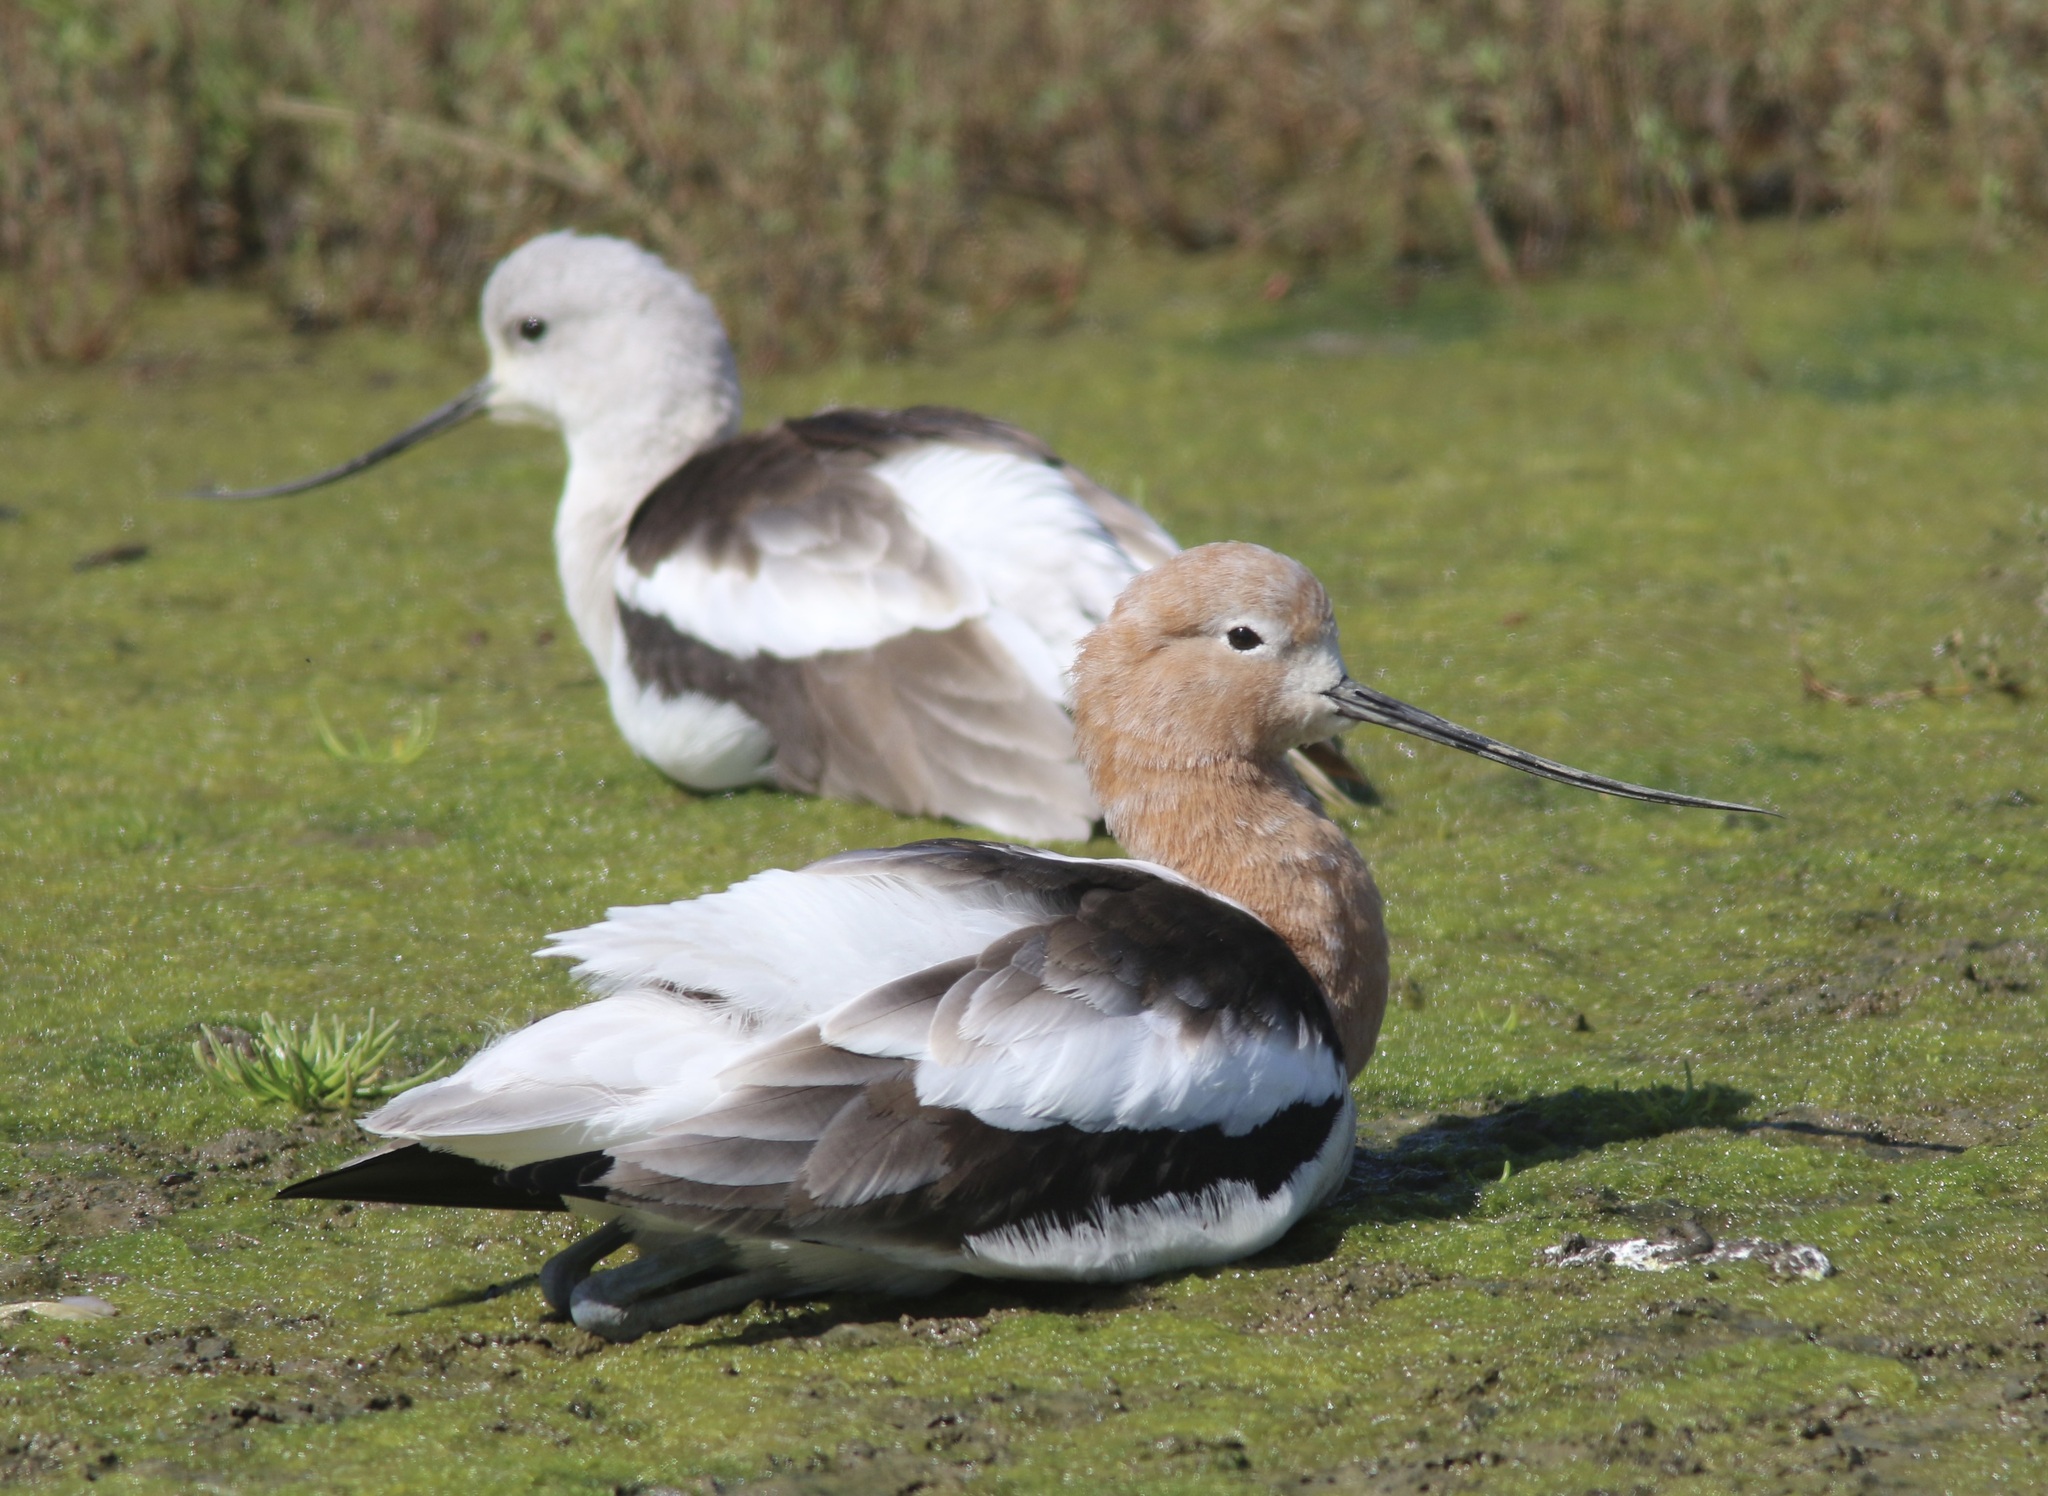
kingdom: Animalia
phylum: Chordata
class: Aves
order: Charadriiformes
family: Recurvirostridae
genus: Recurvirostra
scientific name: Recurvirostra americana
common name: American avocet
